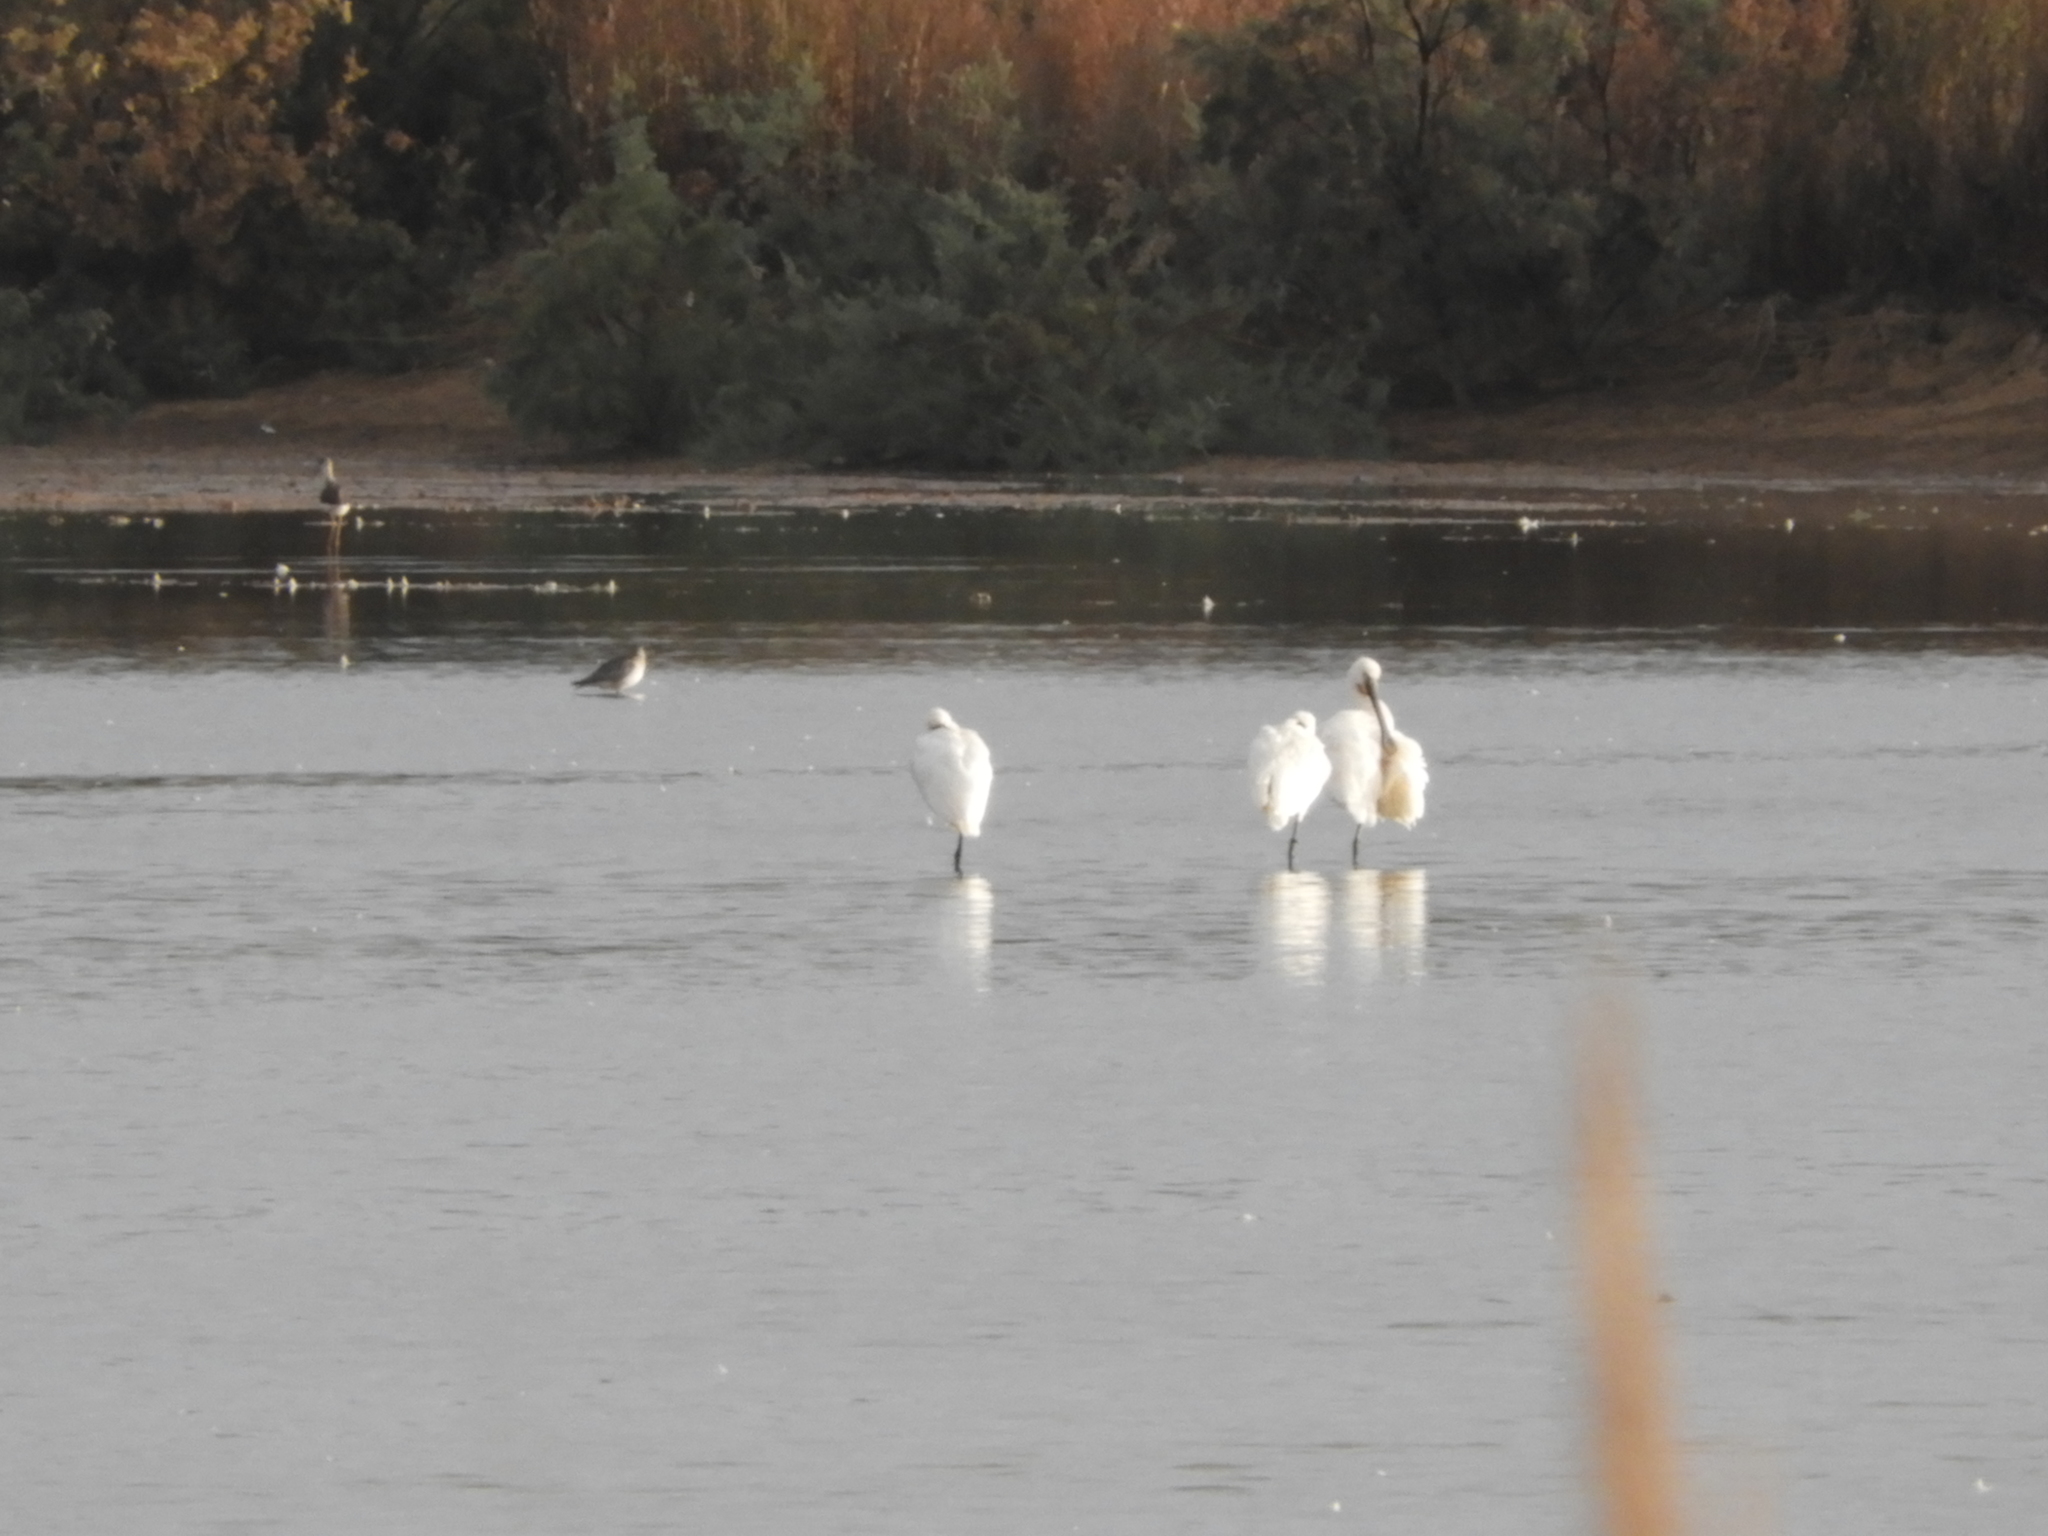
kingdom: Animalia
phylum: Chordata
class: Aves
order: Pelecaniformes
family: Threskiornithidae
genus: Platalea
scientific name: Platalea leucorodia
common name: Eurasian spoonbill
